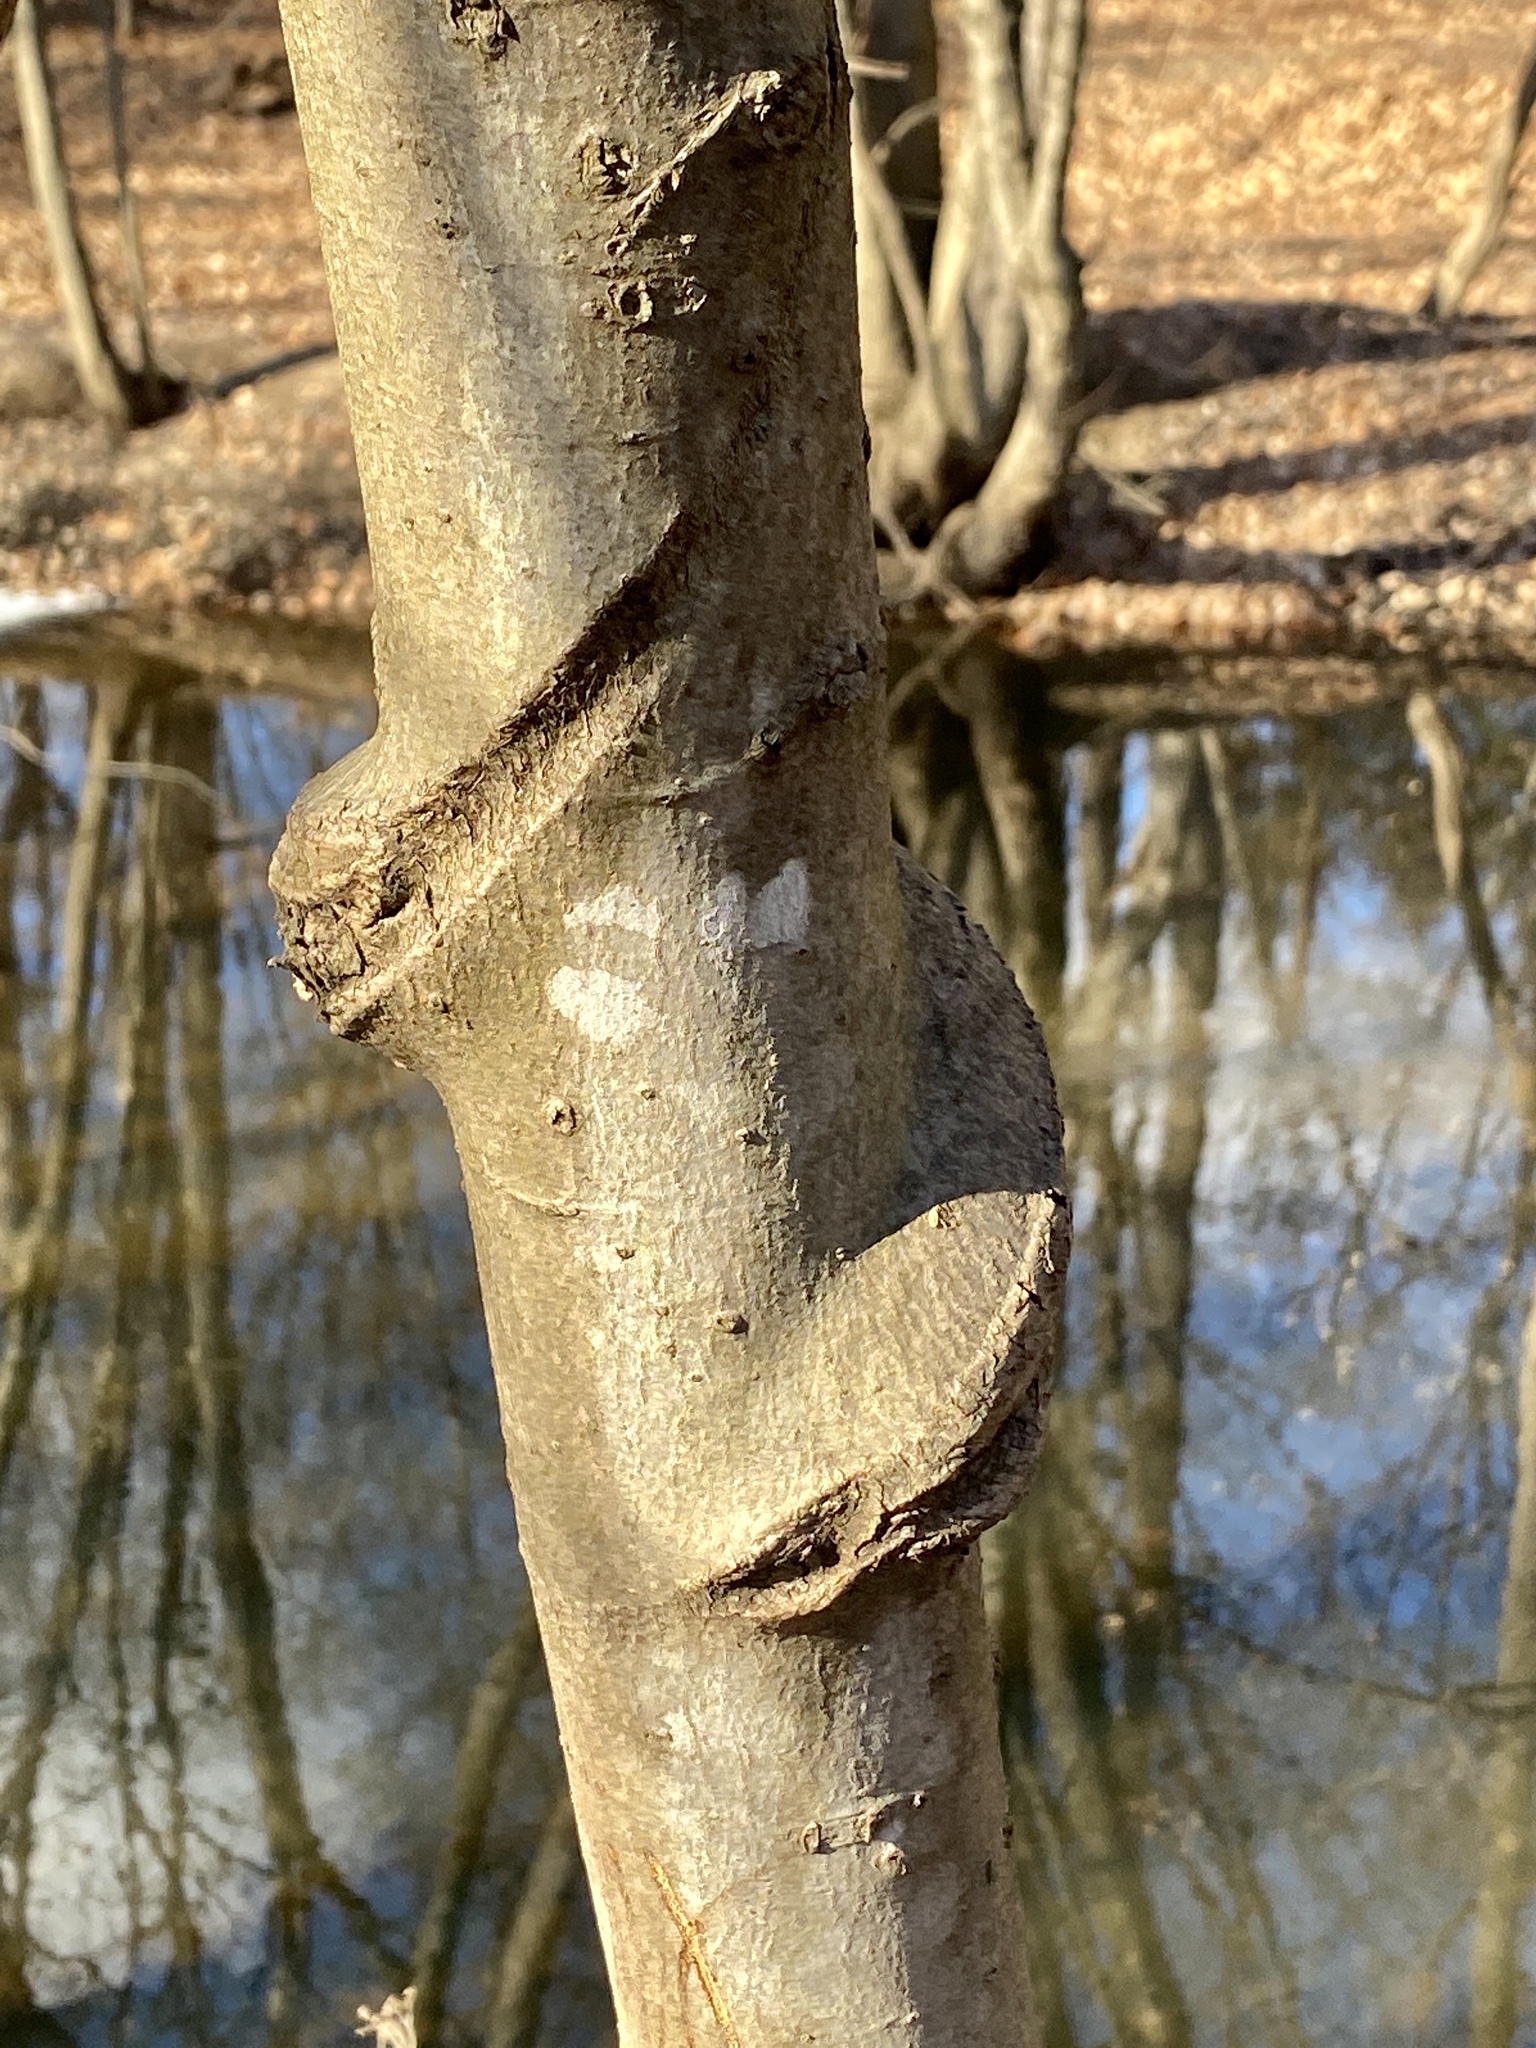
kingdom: Plantae
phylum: Tracheophyta
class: Magnoliopsida
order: Celastrales
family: Celastraceae
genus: Celastrus
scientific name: Celastrus orbiculatus
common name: Oriental bittersweet
